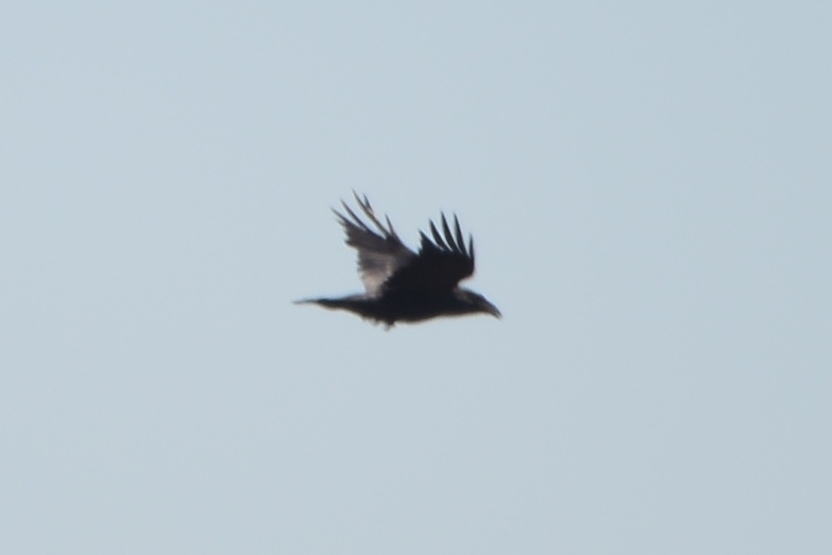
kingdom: Animalia
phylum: Chordata
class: Aves
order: Passeriformes
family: Corvidae
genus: Corvus
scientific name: Corvus corax
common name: Common raven
